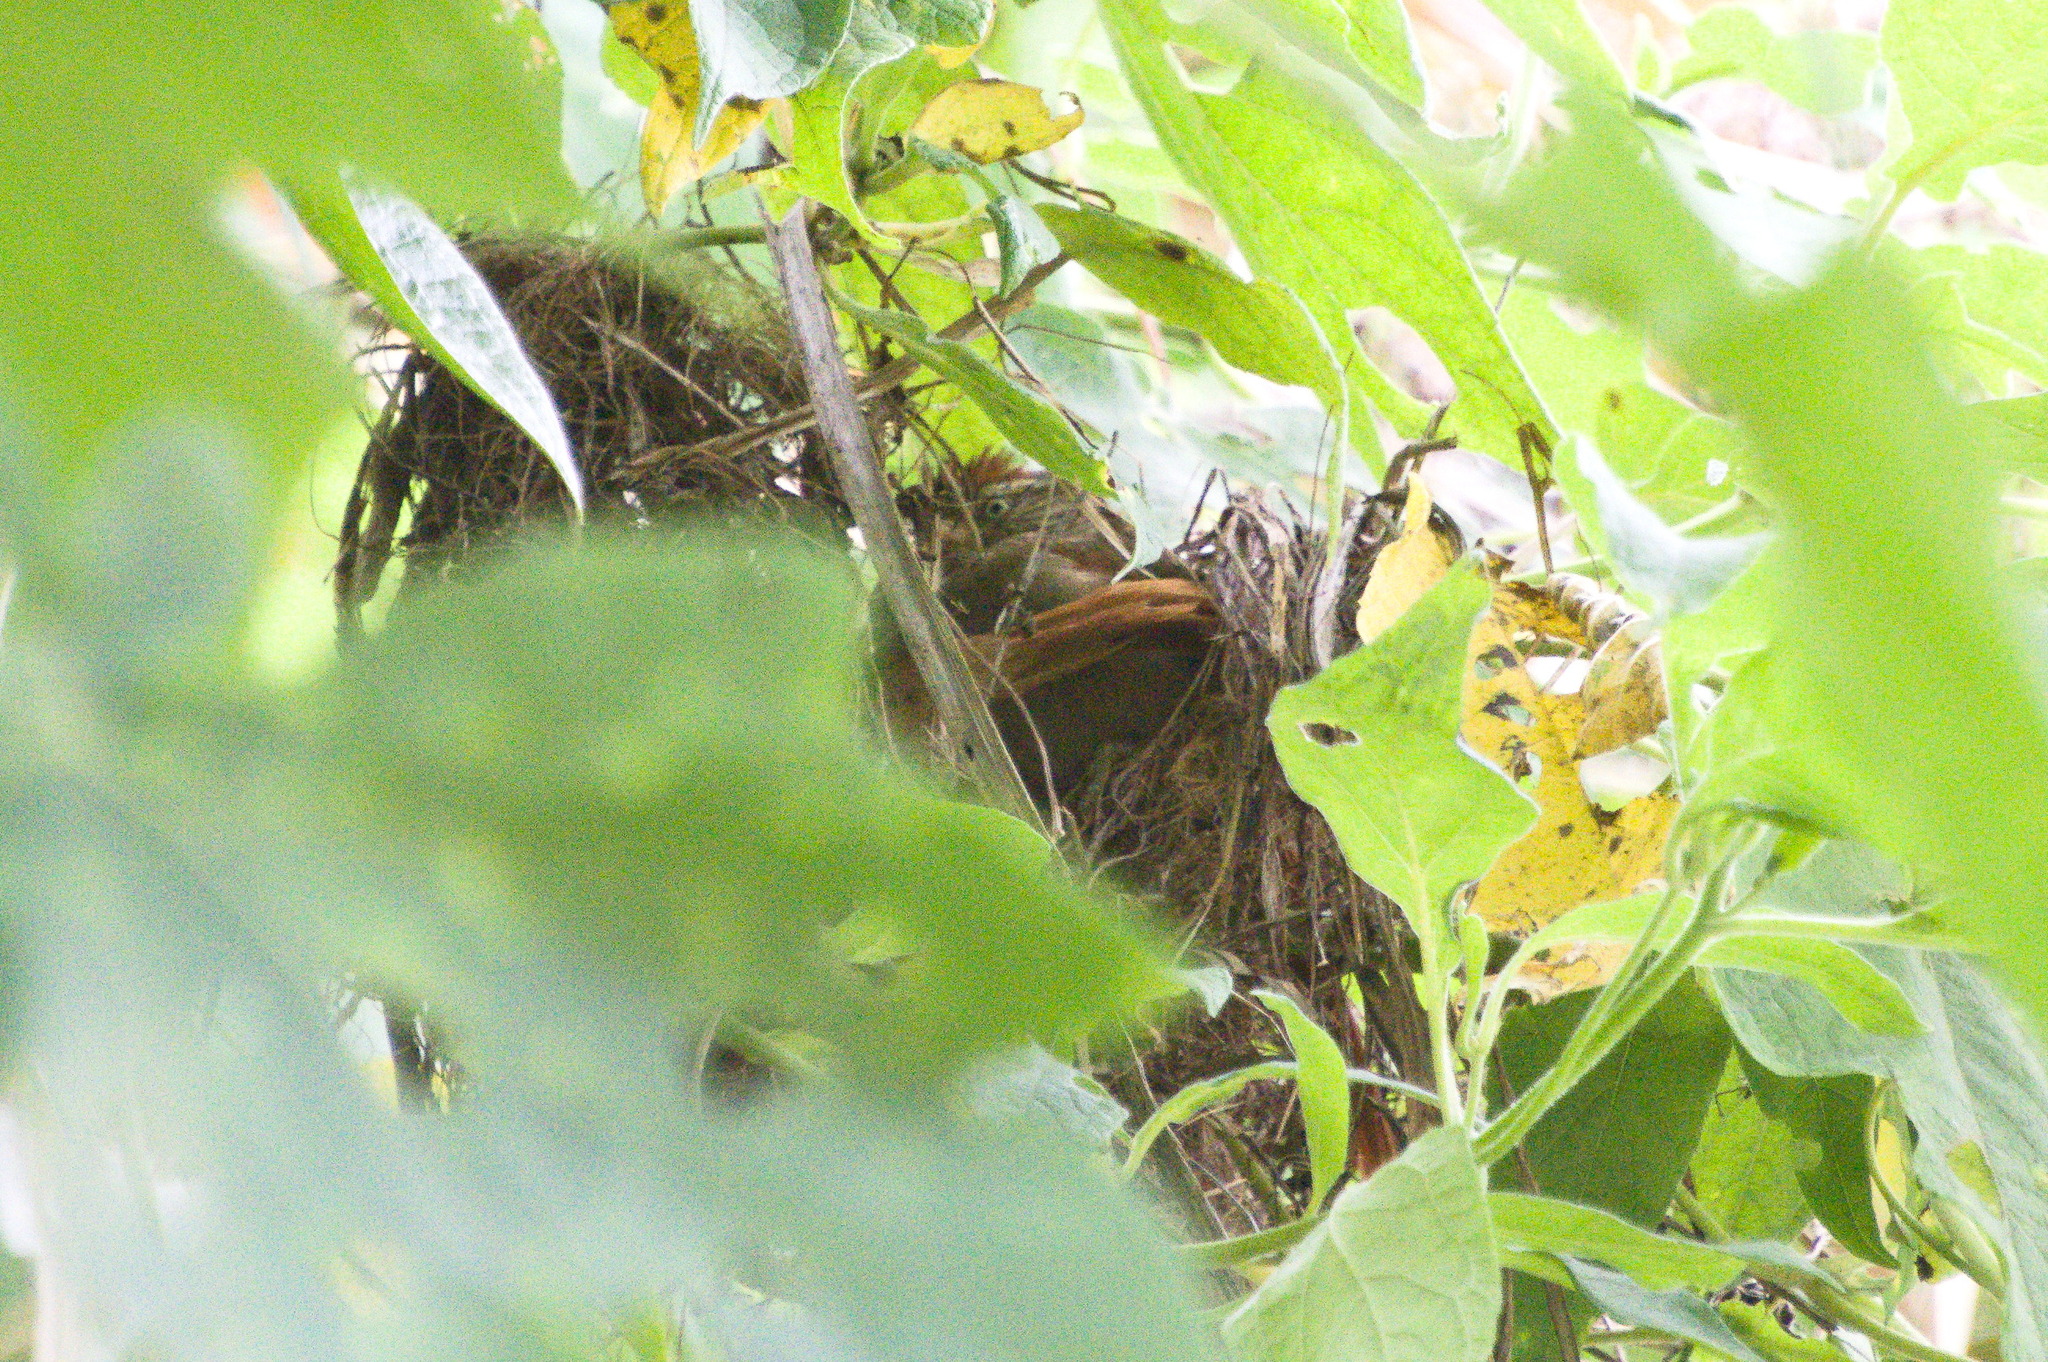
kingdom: Animalia
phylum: Chordata
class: Aves
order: Passeriformes
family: Furnariidae
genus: Cranioleuca
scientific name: Cranioleuca hellmayri
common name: Streak-capped spinetail
